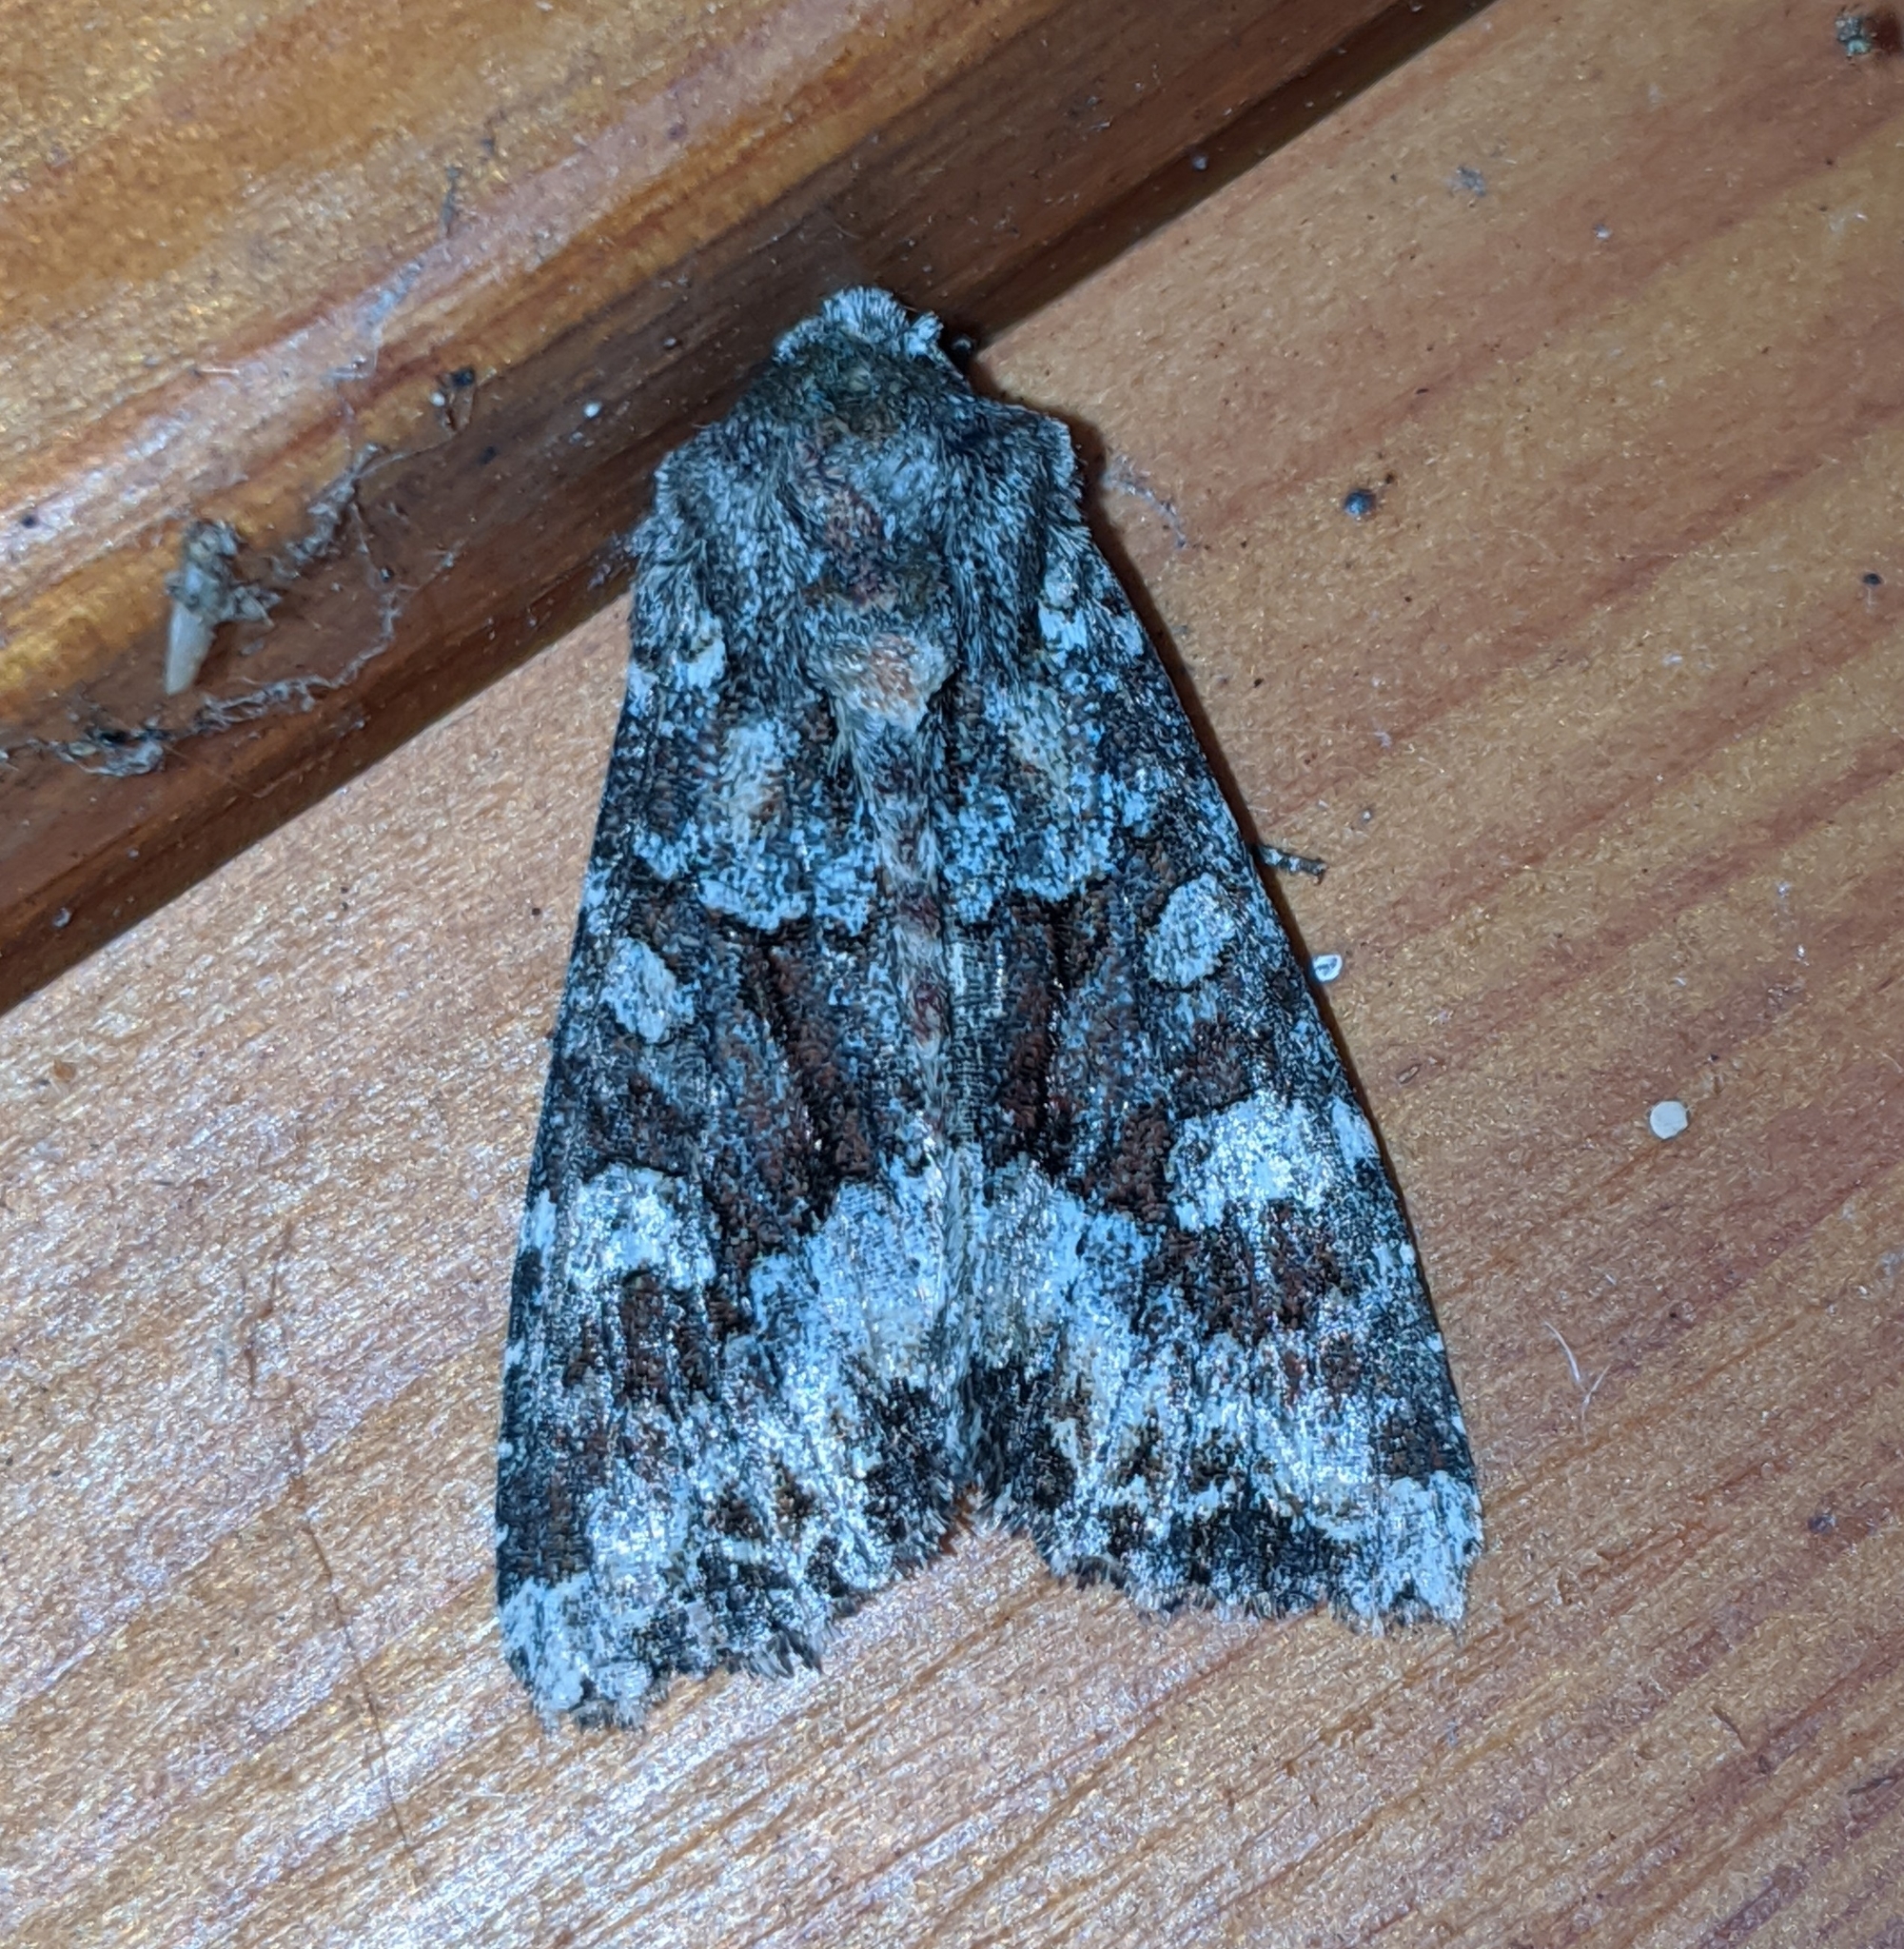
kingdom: Animalia
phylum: Arthropoda
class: Insecta
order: Lepidoptera
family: Noctuidae
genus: Apamea
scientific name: Apamea amputatrix
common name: Yellow-headed cutworm moth
